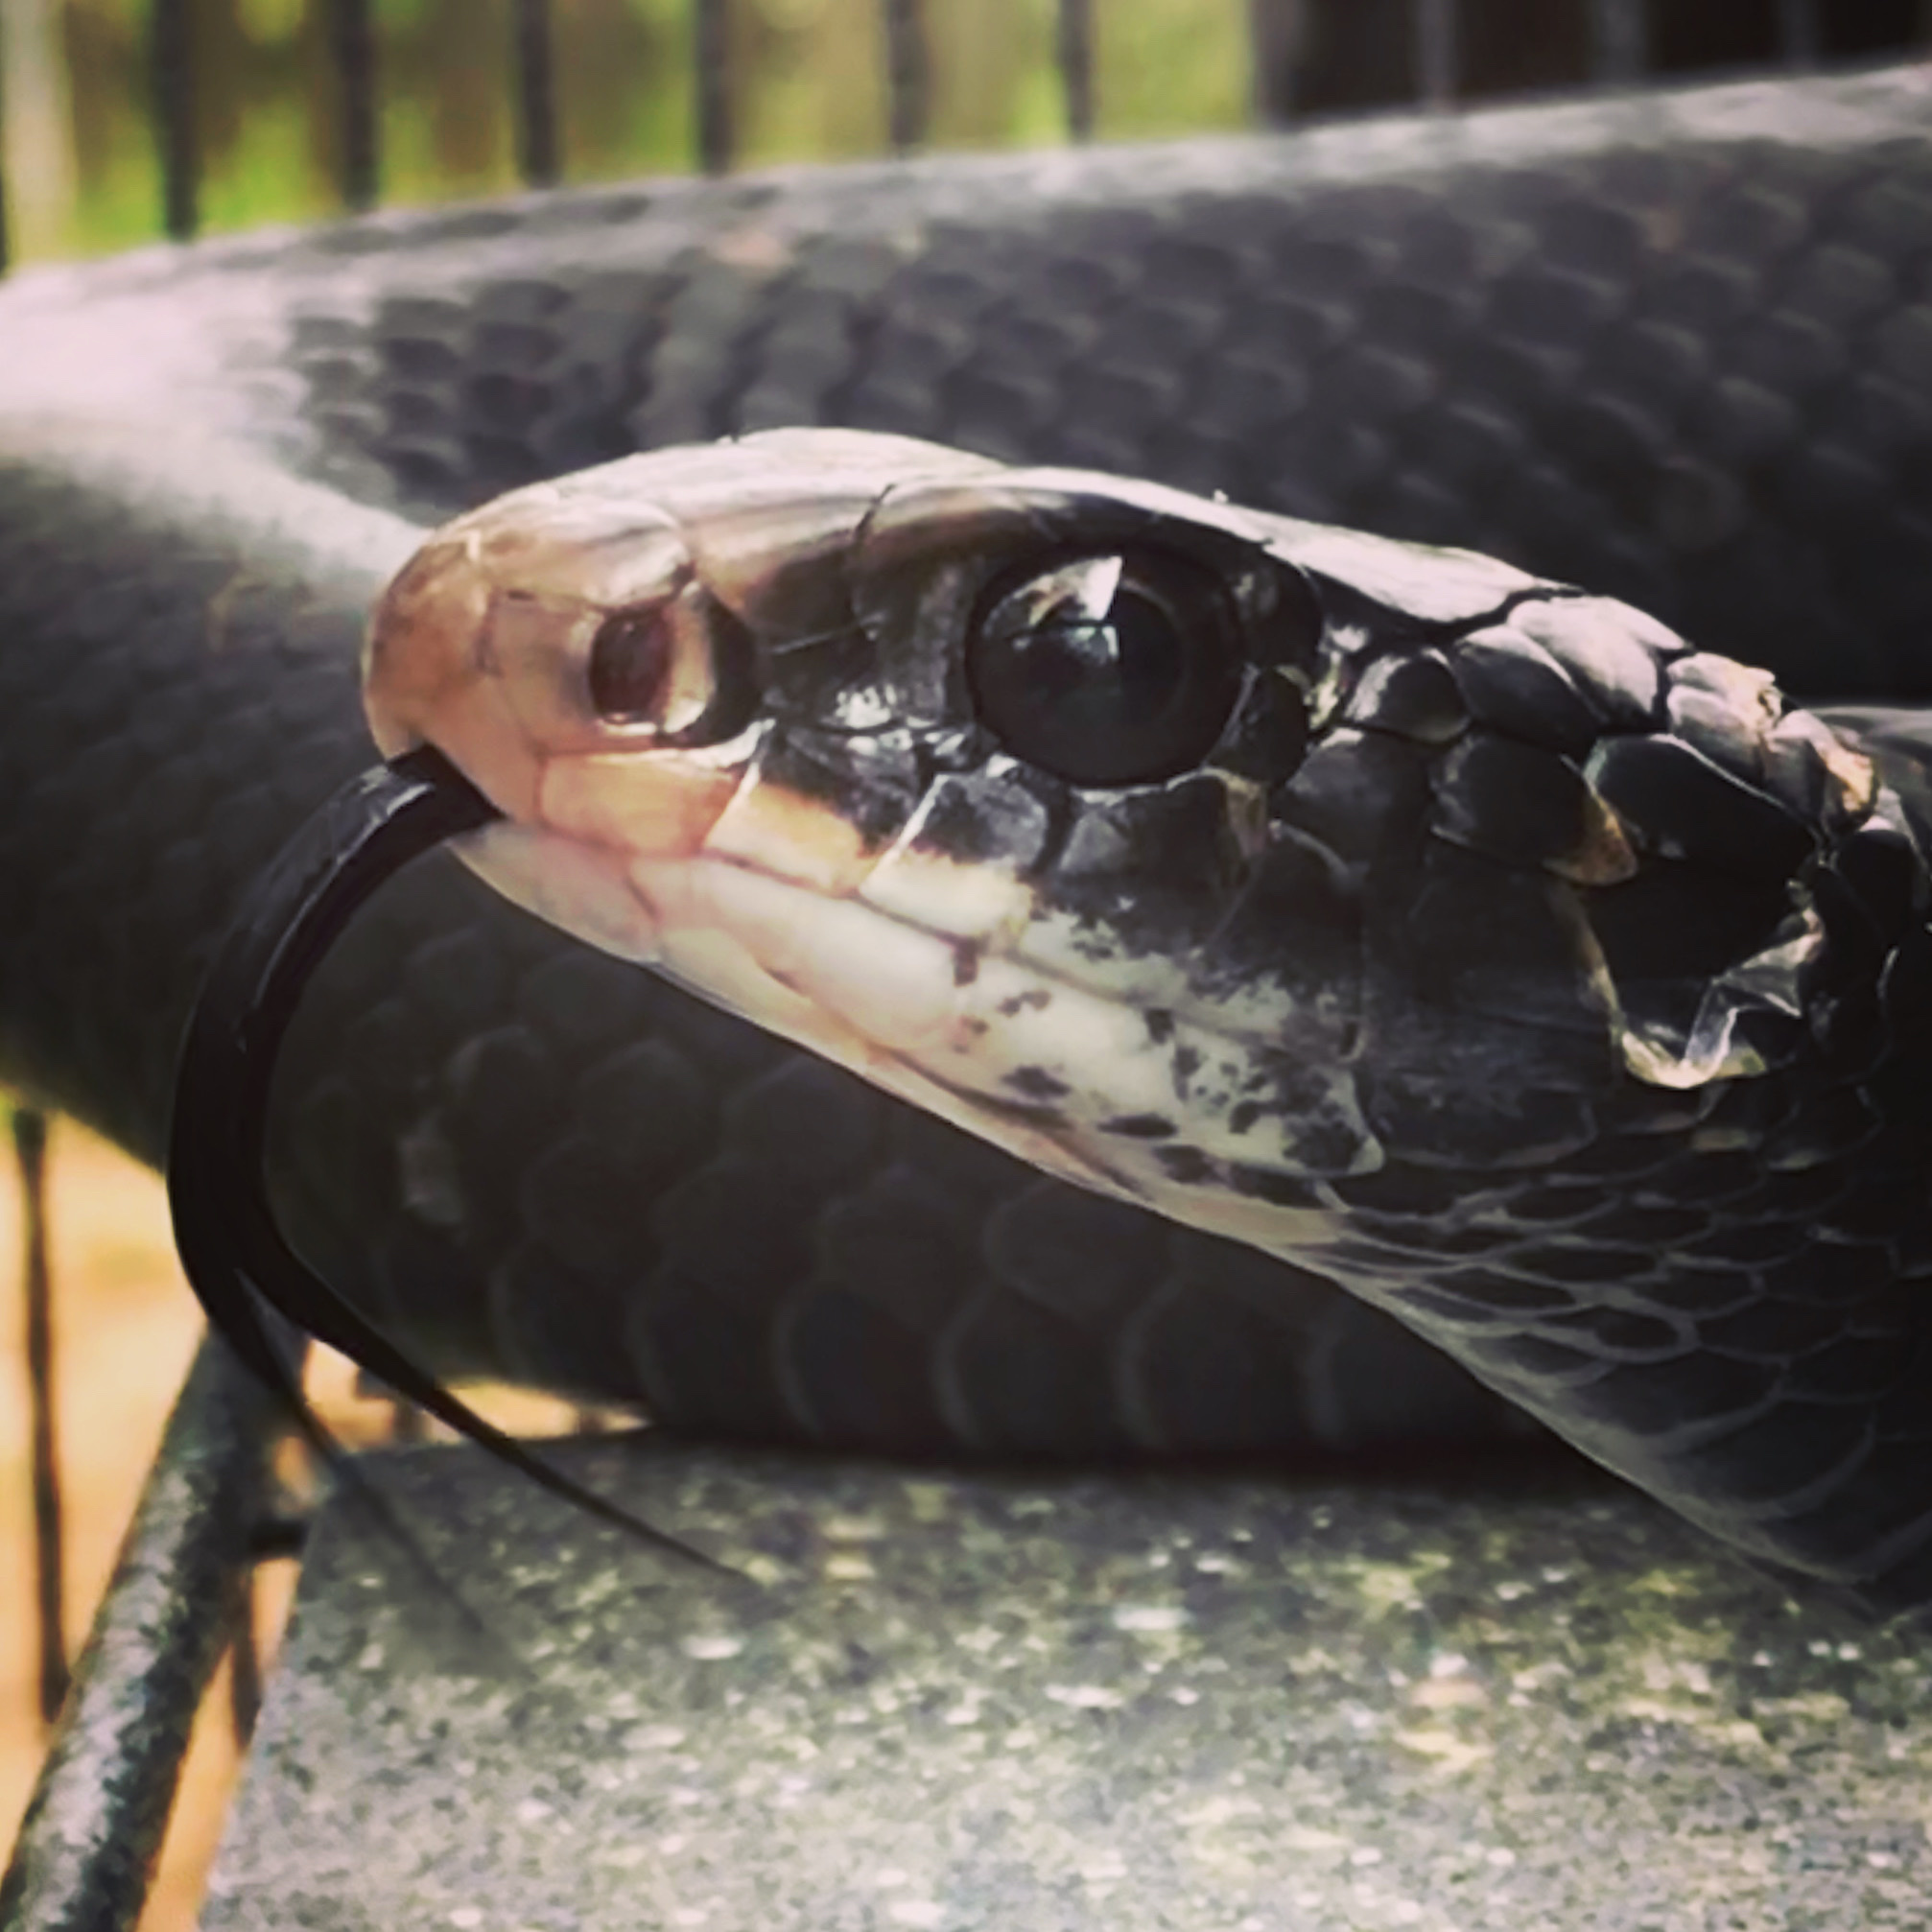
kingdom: Animalia
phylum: Chordata
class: Squamata
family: Colubridae
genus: Coluber
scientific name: Coluber constrictor
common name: Eastern racer
